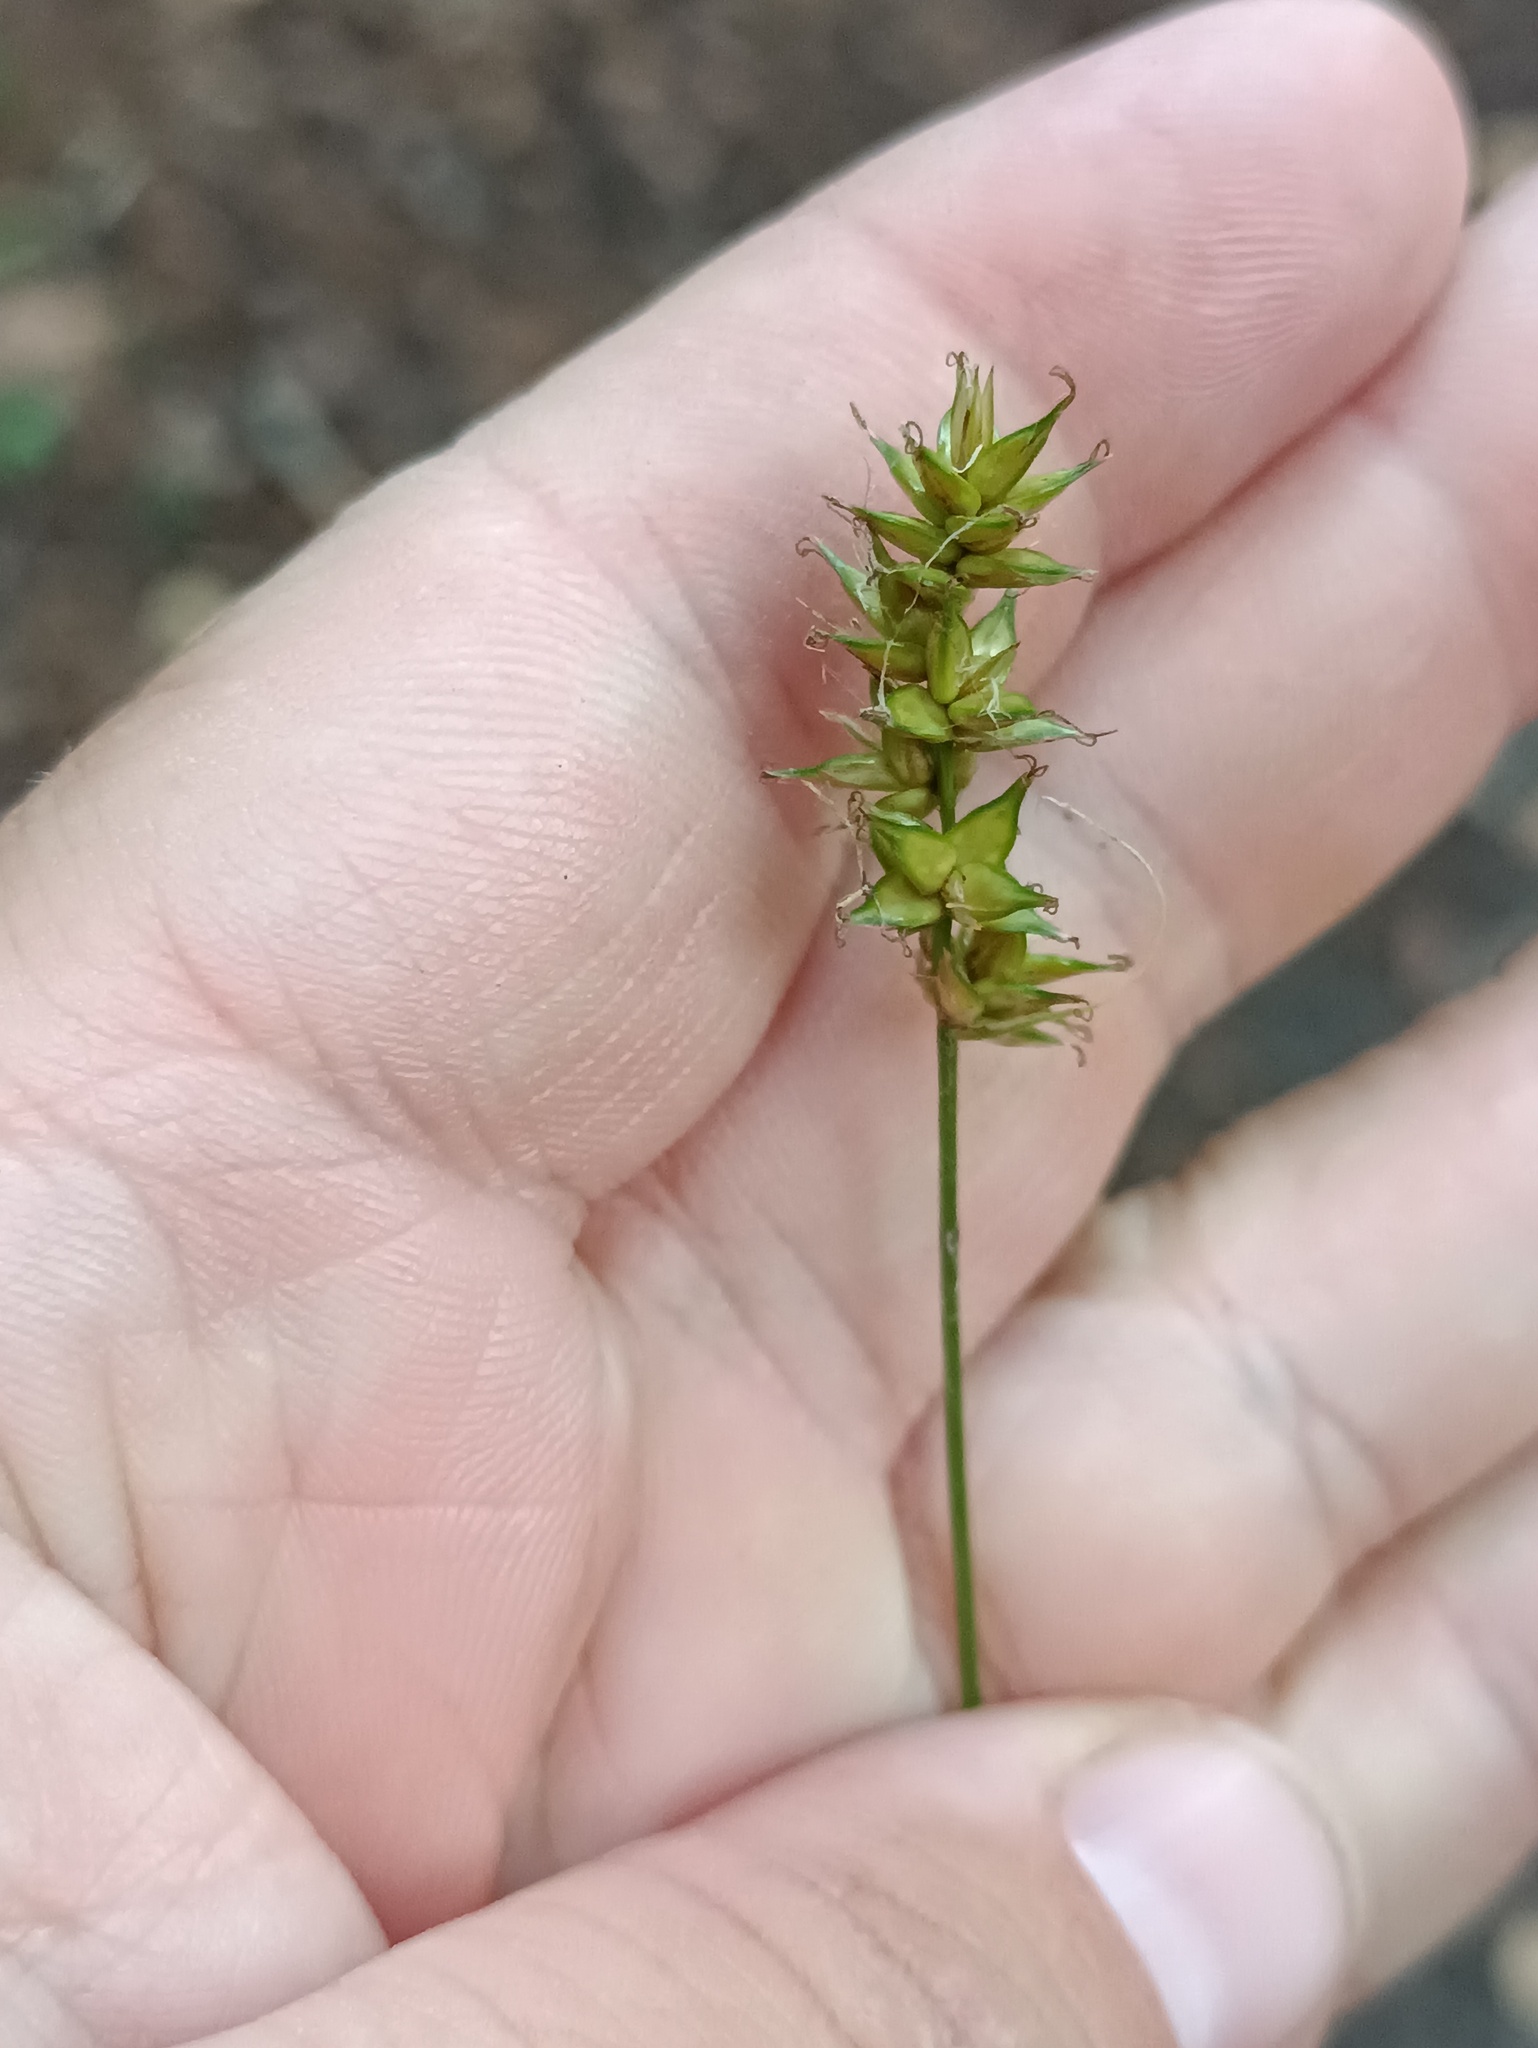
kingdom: Plantae
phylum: Tracheophyta
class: Liliopsida
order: Poales
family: Cyperaceae
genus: Carex
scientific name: Carex spicata
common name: Spiked sedge
